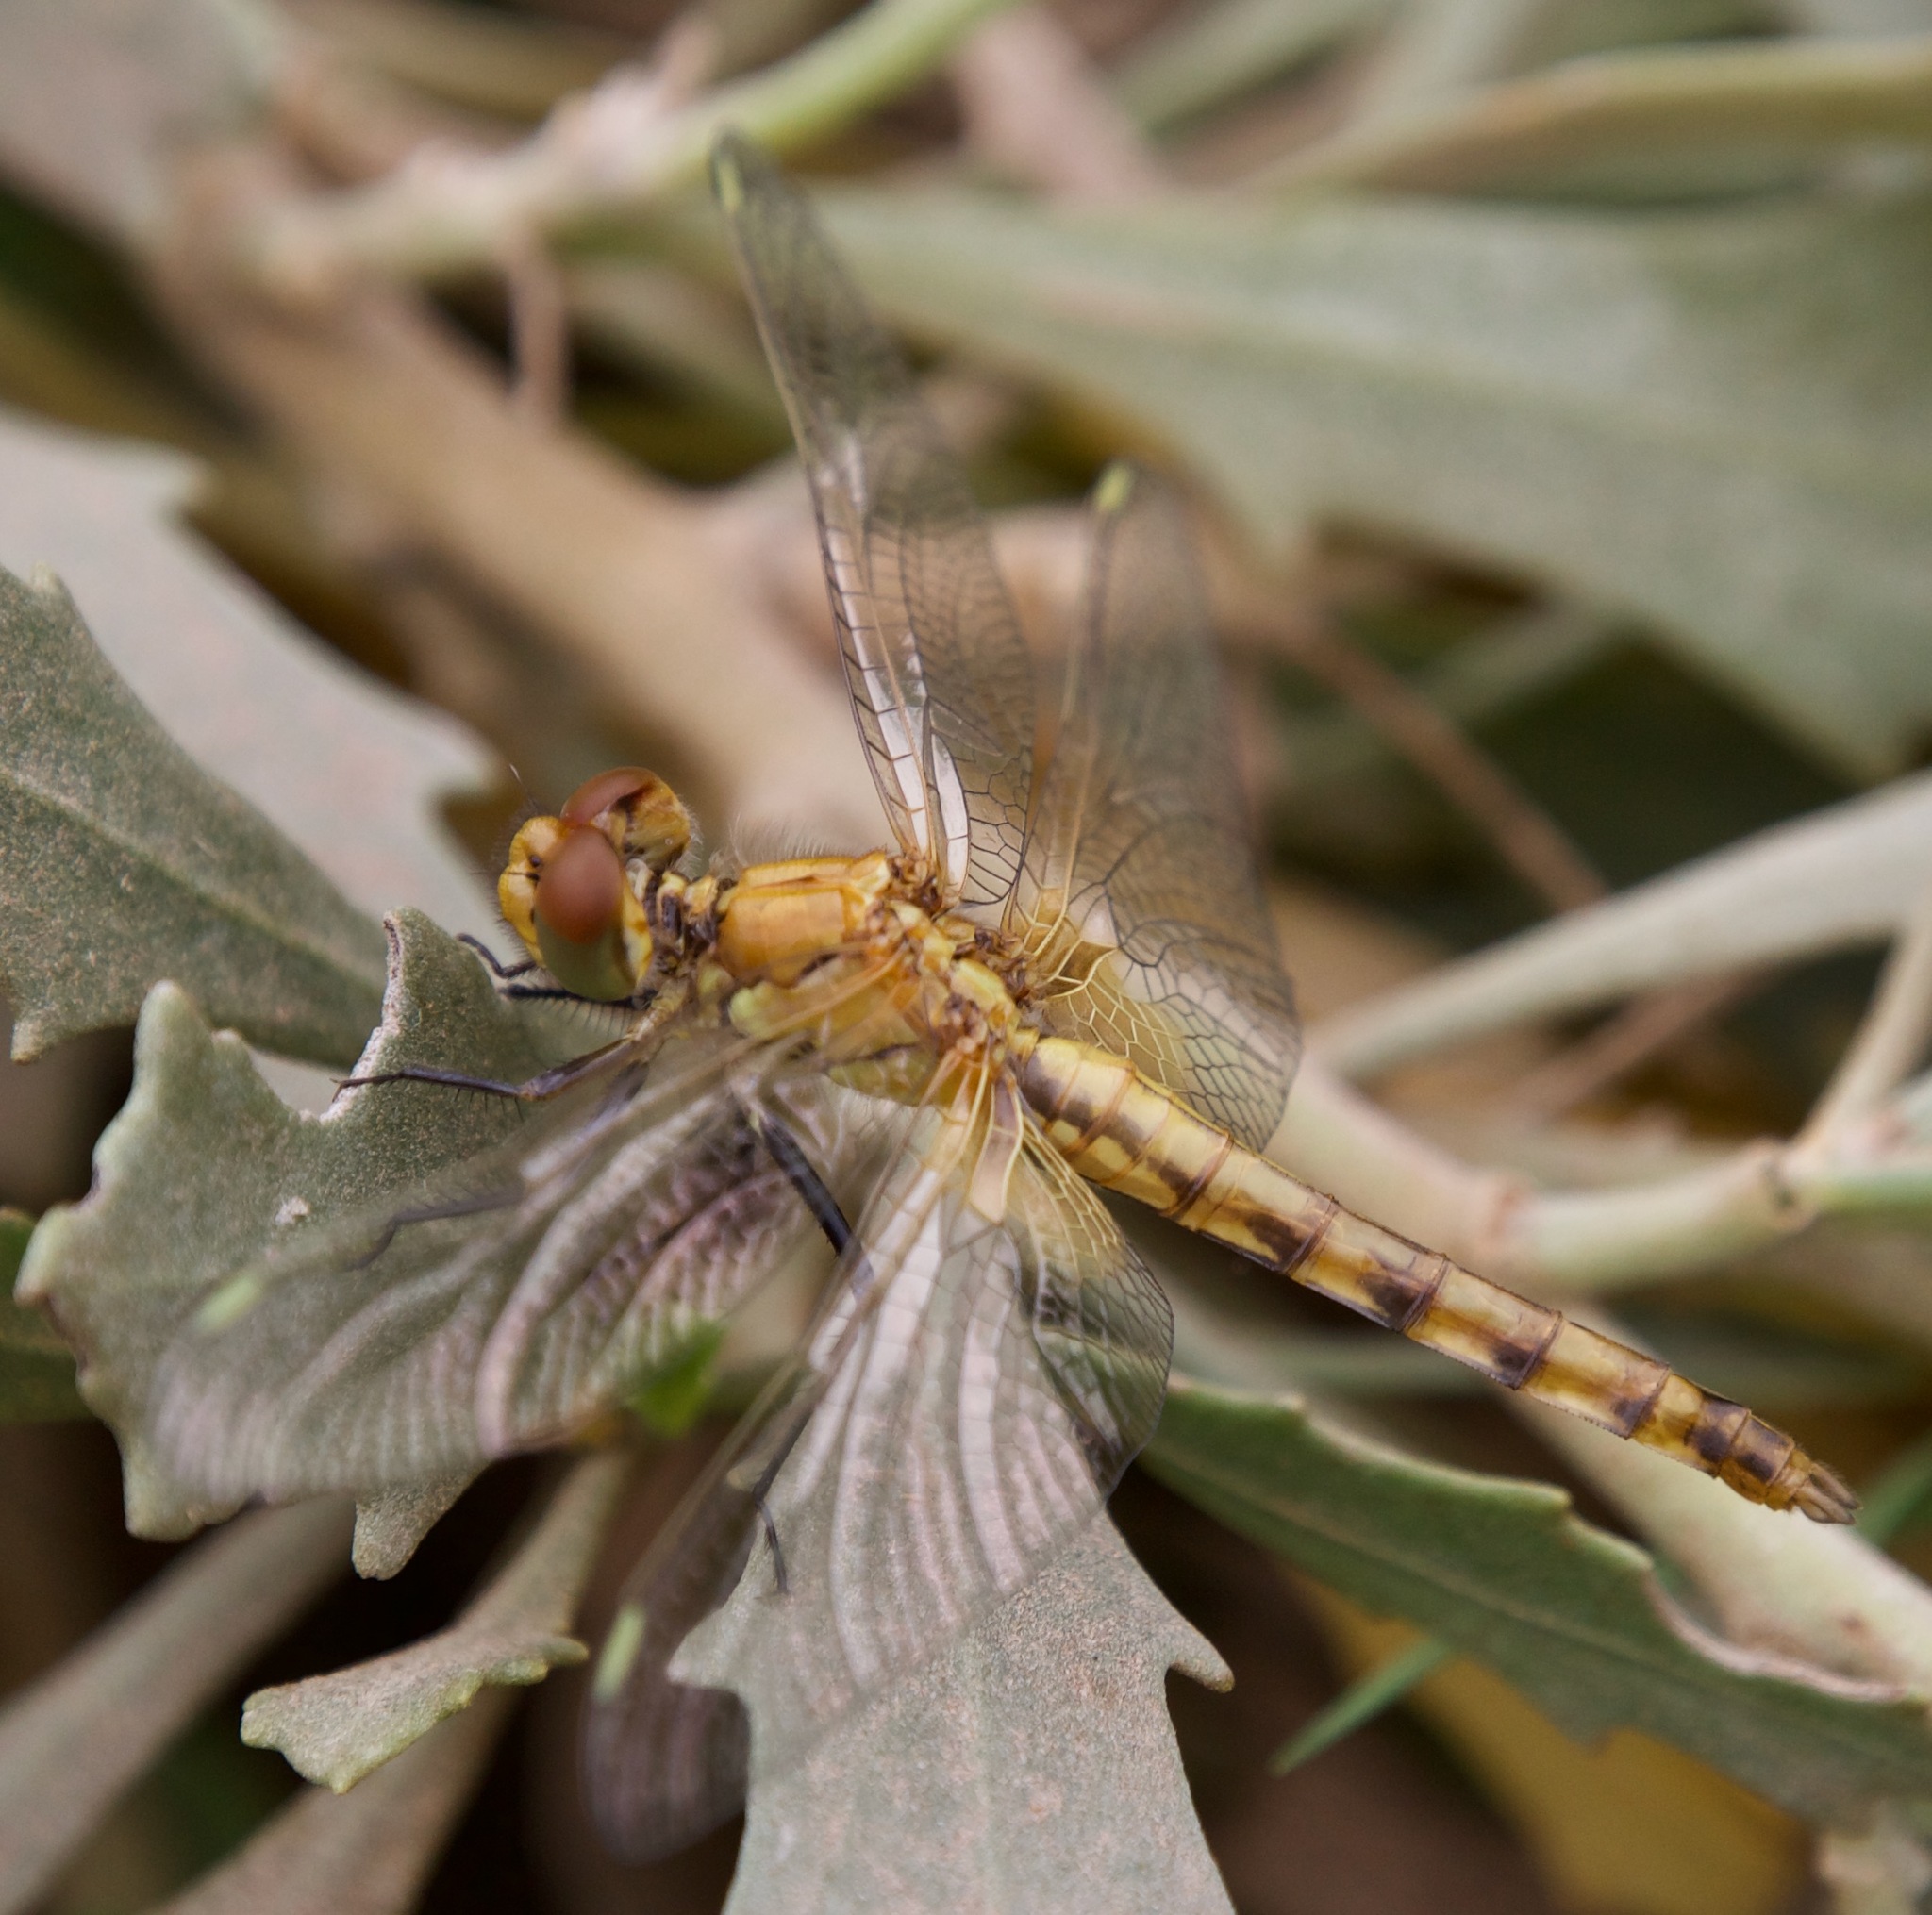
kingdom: Animalia
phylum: Arthropoda
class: Insecta
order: Odonata
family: Libellulidae
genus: Erythrodiplax
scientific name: Erythrodiplax corallina
